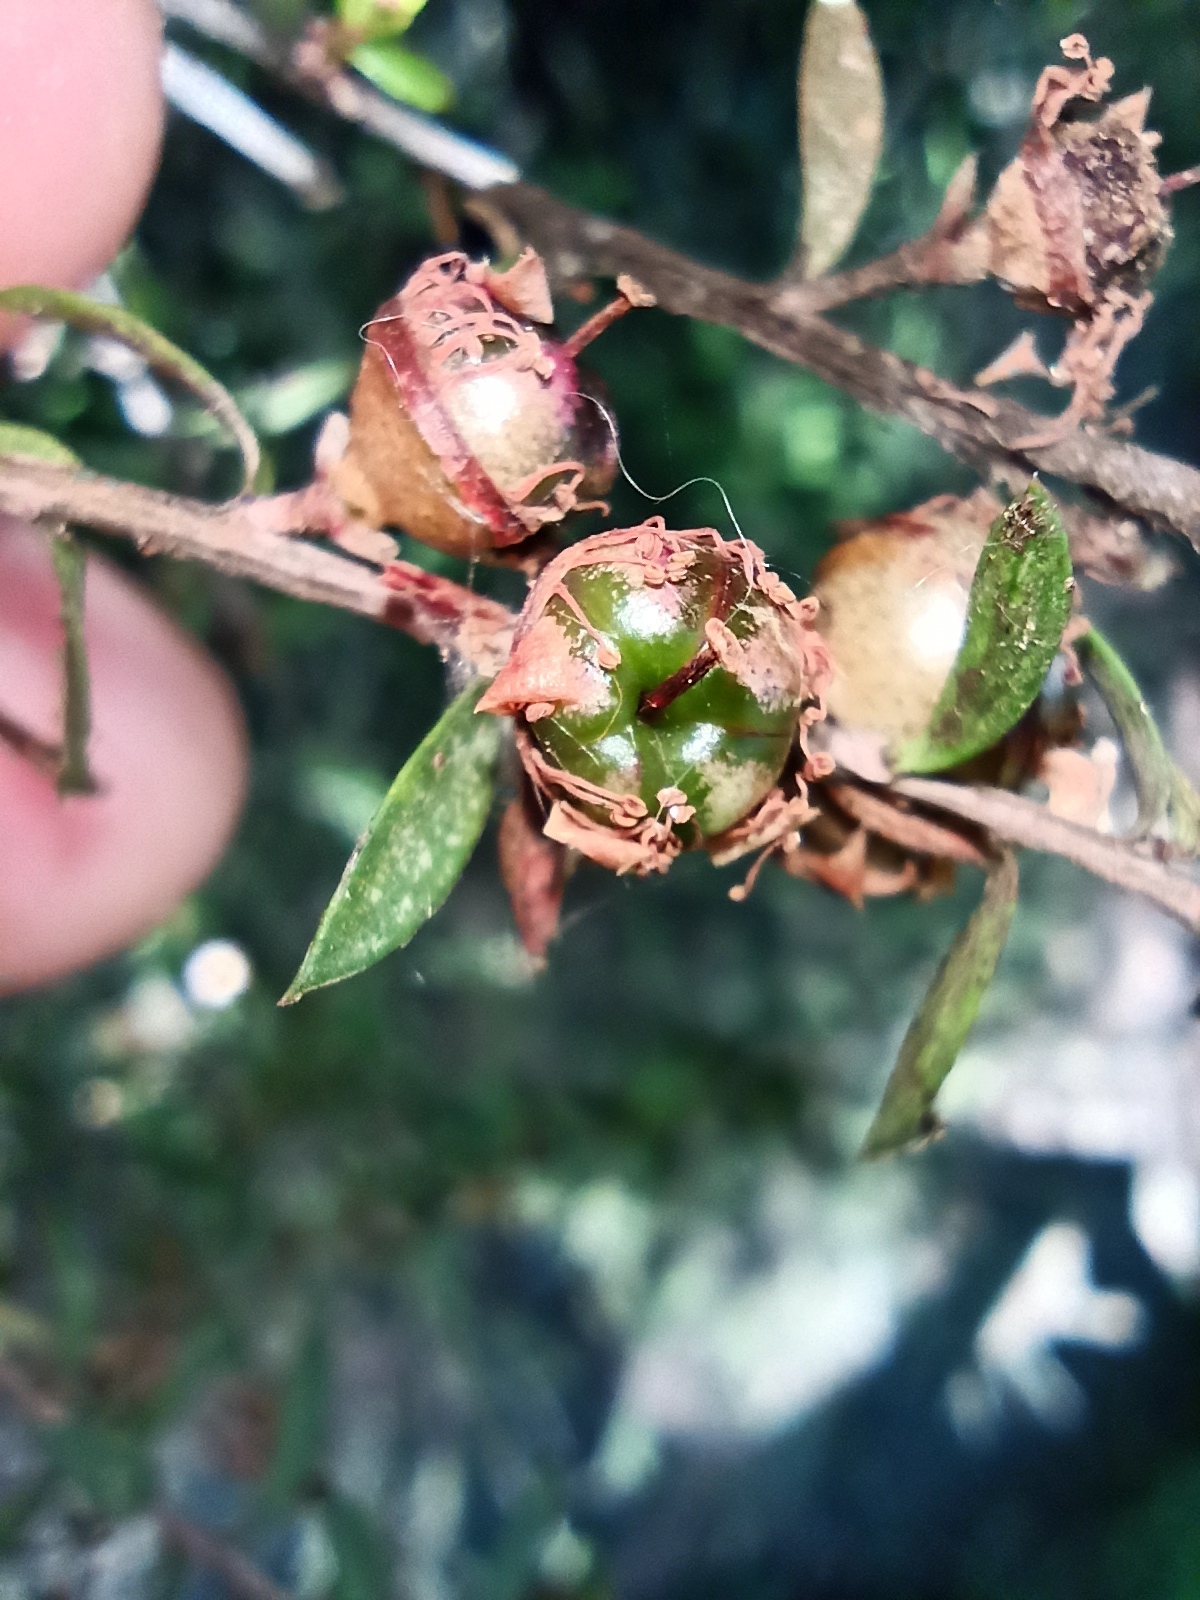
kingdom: Plantae
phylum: Tracheophyta
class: Magnoliopsida
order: Myrtales
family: Myrtaceae
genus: Leptospermum
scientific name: Leptospermum scoparium
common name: Broom tea-tree
